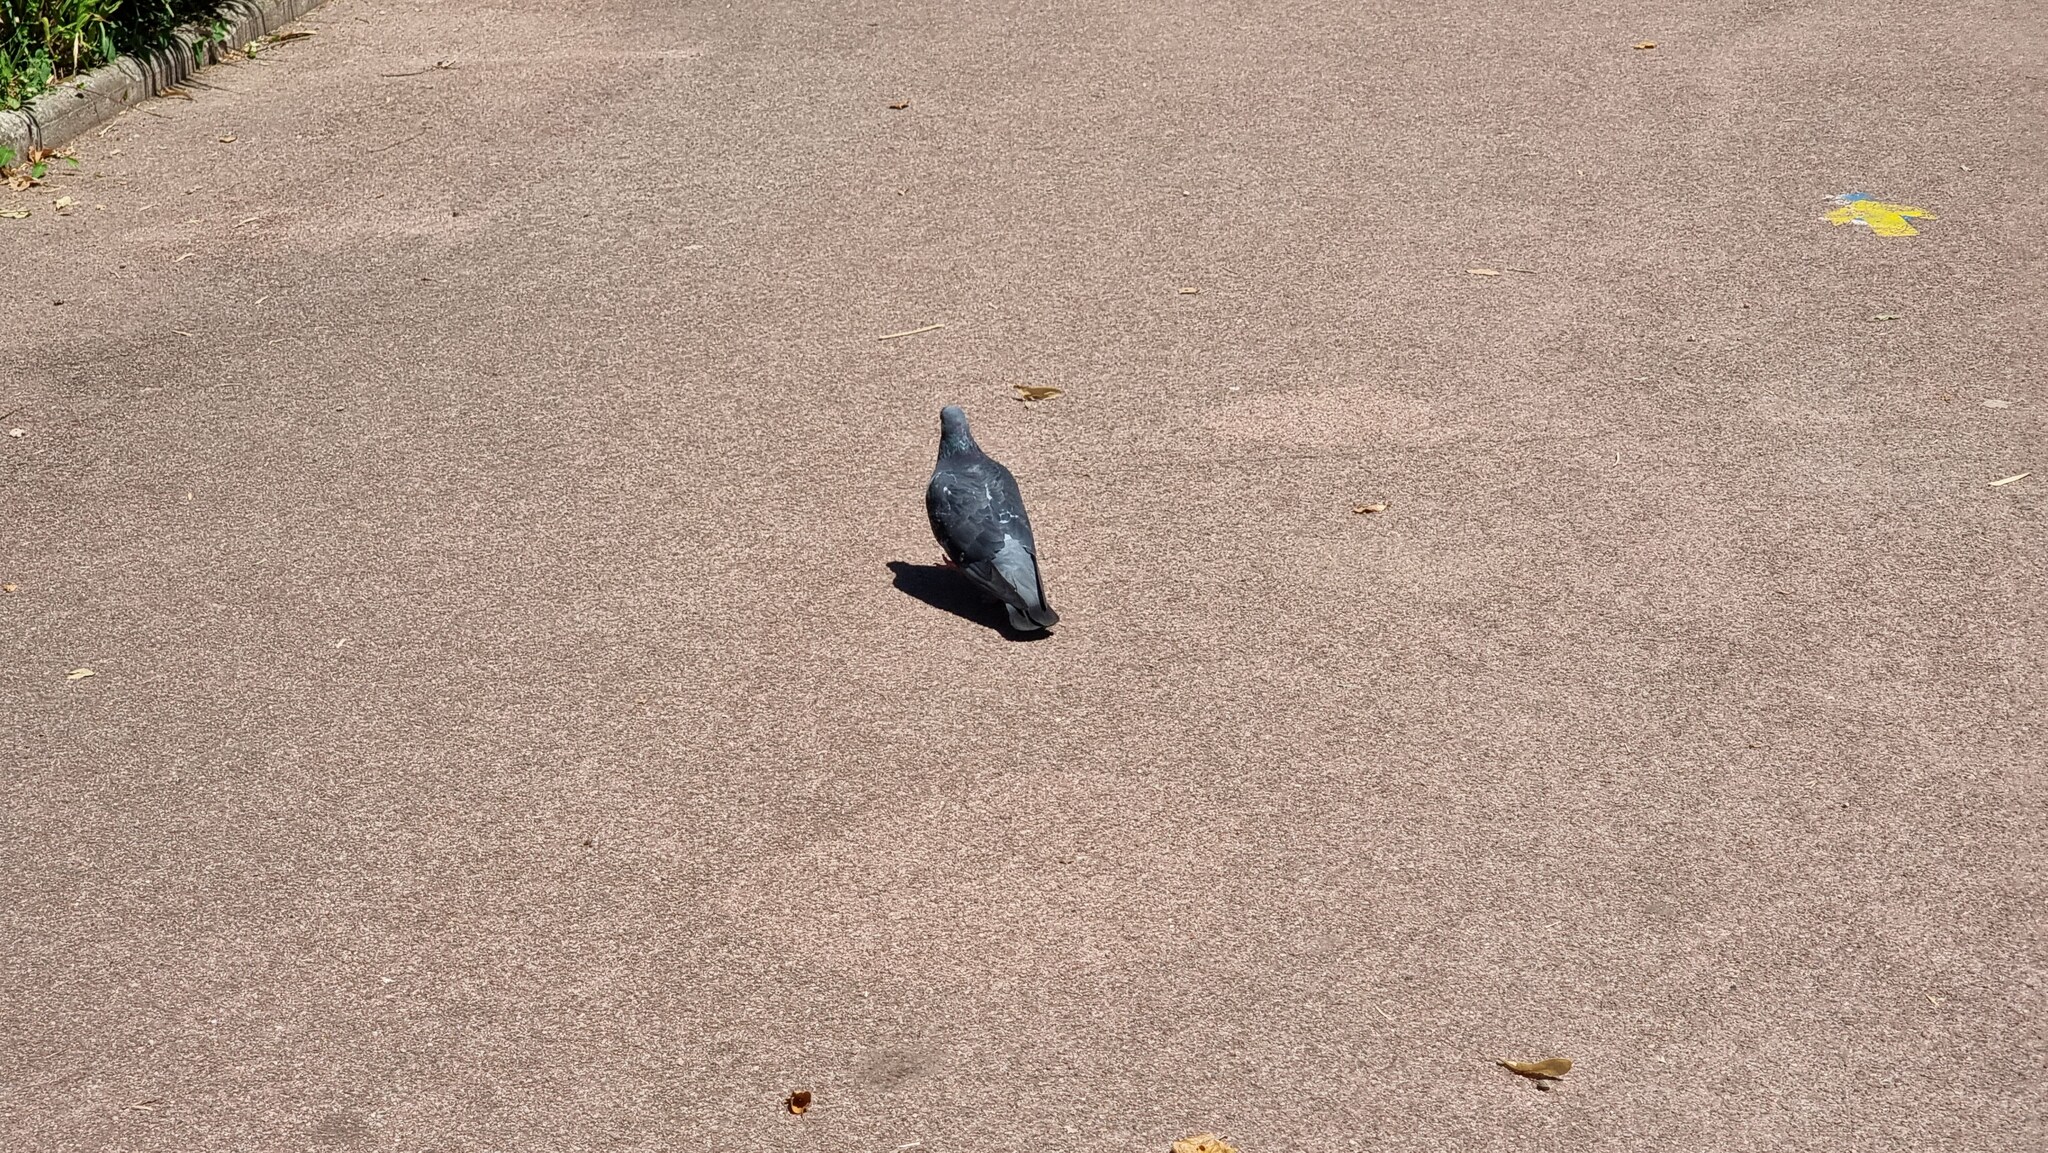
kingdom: Animalia
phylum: Chordata
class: Aves
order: Columbiformes
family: Columbidae
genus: Columba
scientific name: Columba livia
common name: Rock pigeon
